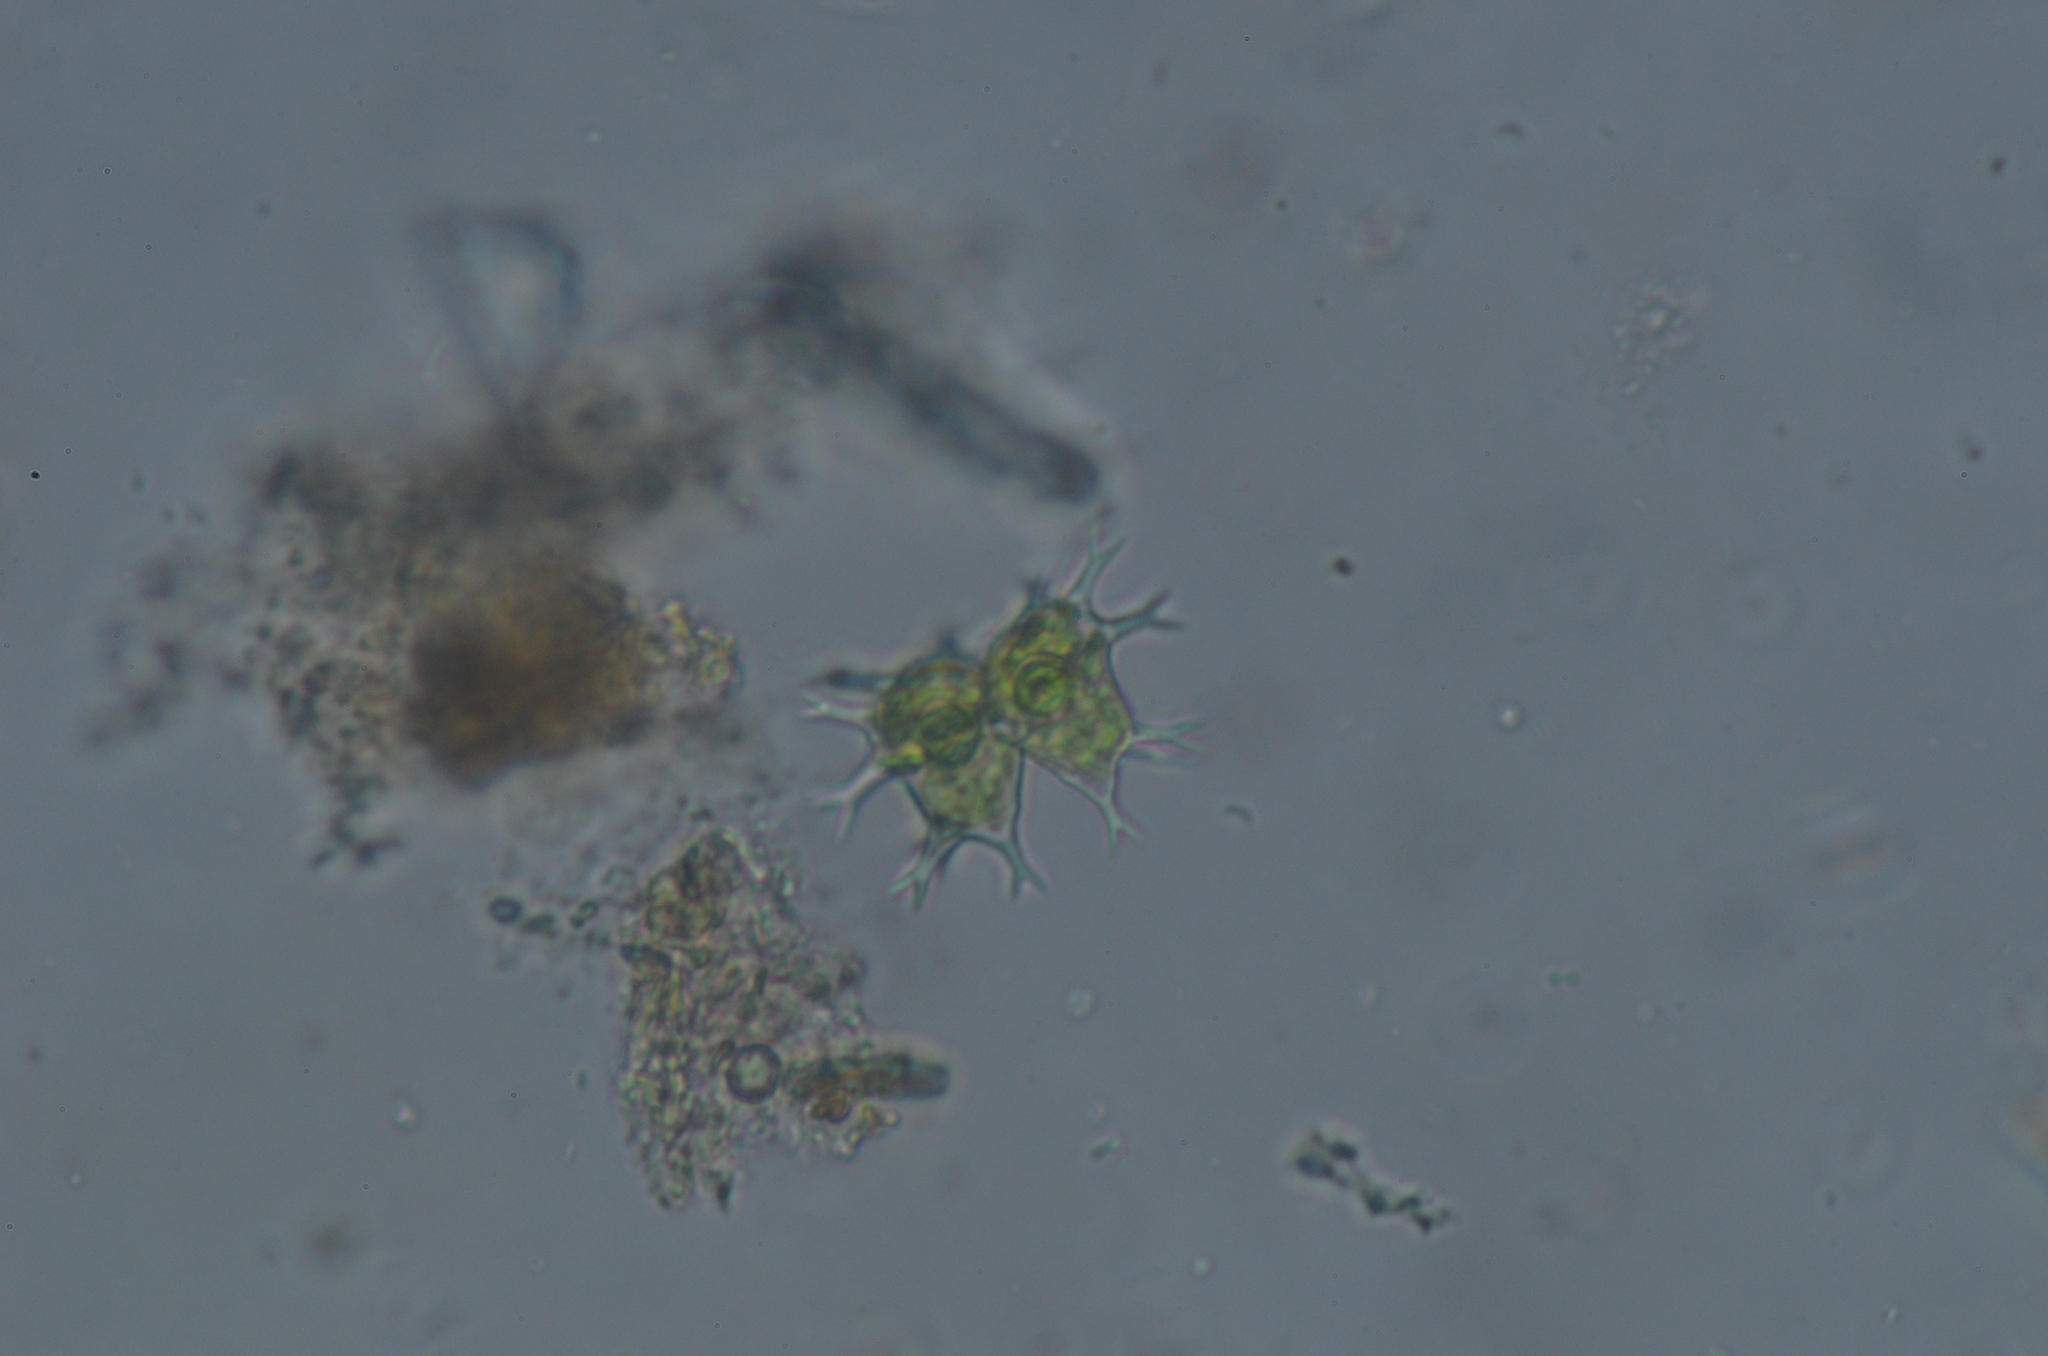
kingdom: Plantae
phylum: Charophyta
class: Conjugatophyceae
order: Desmidiales
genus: Staurastrum
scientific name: Staurastrum furcatum
